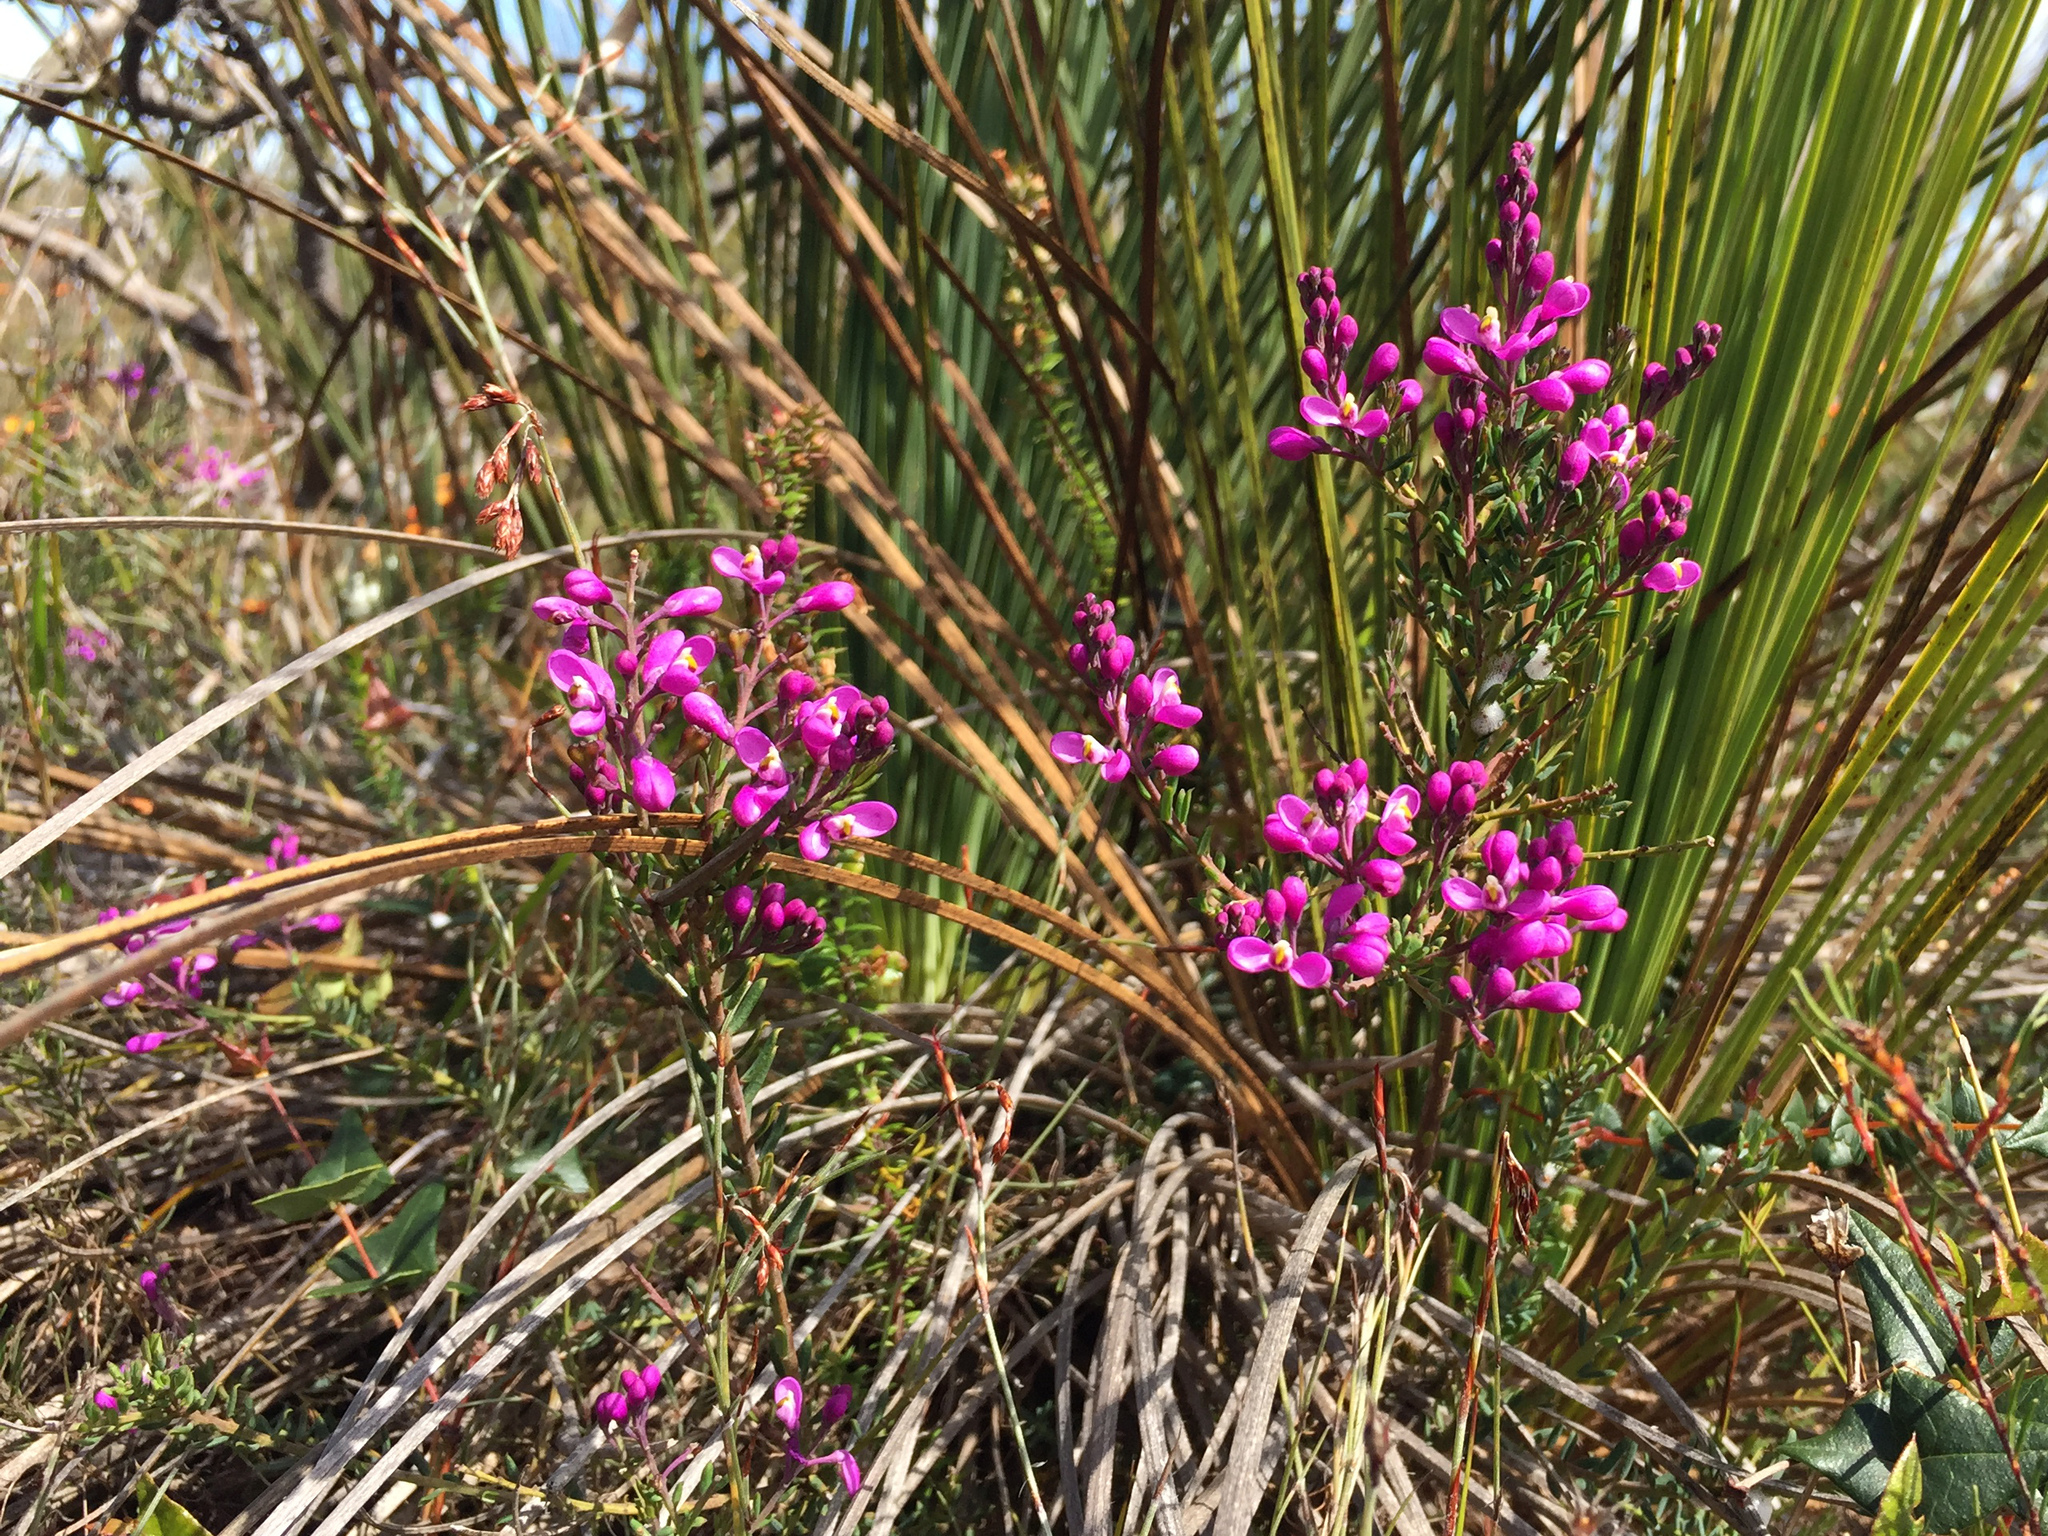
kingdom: Plantae
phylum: Tracheophyta
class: Magnoliopsida
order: Fabales
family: Polygalaceae
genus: Comesperma
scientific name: Comesperma ericinum
